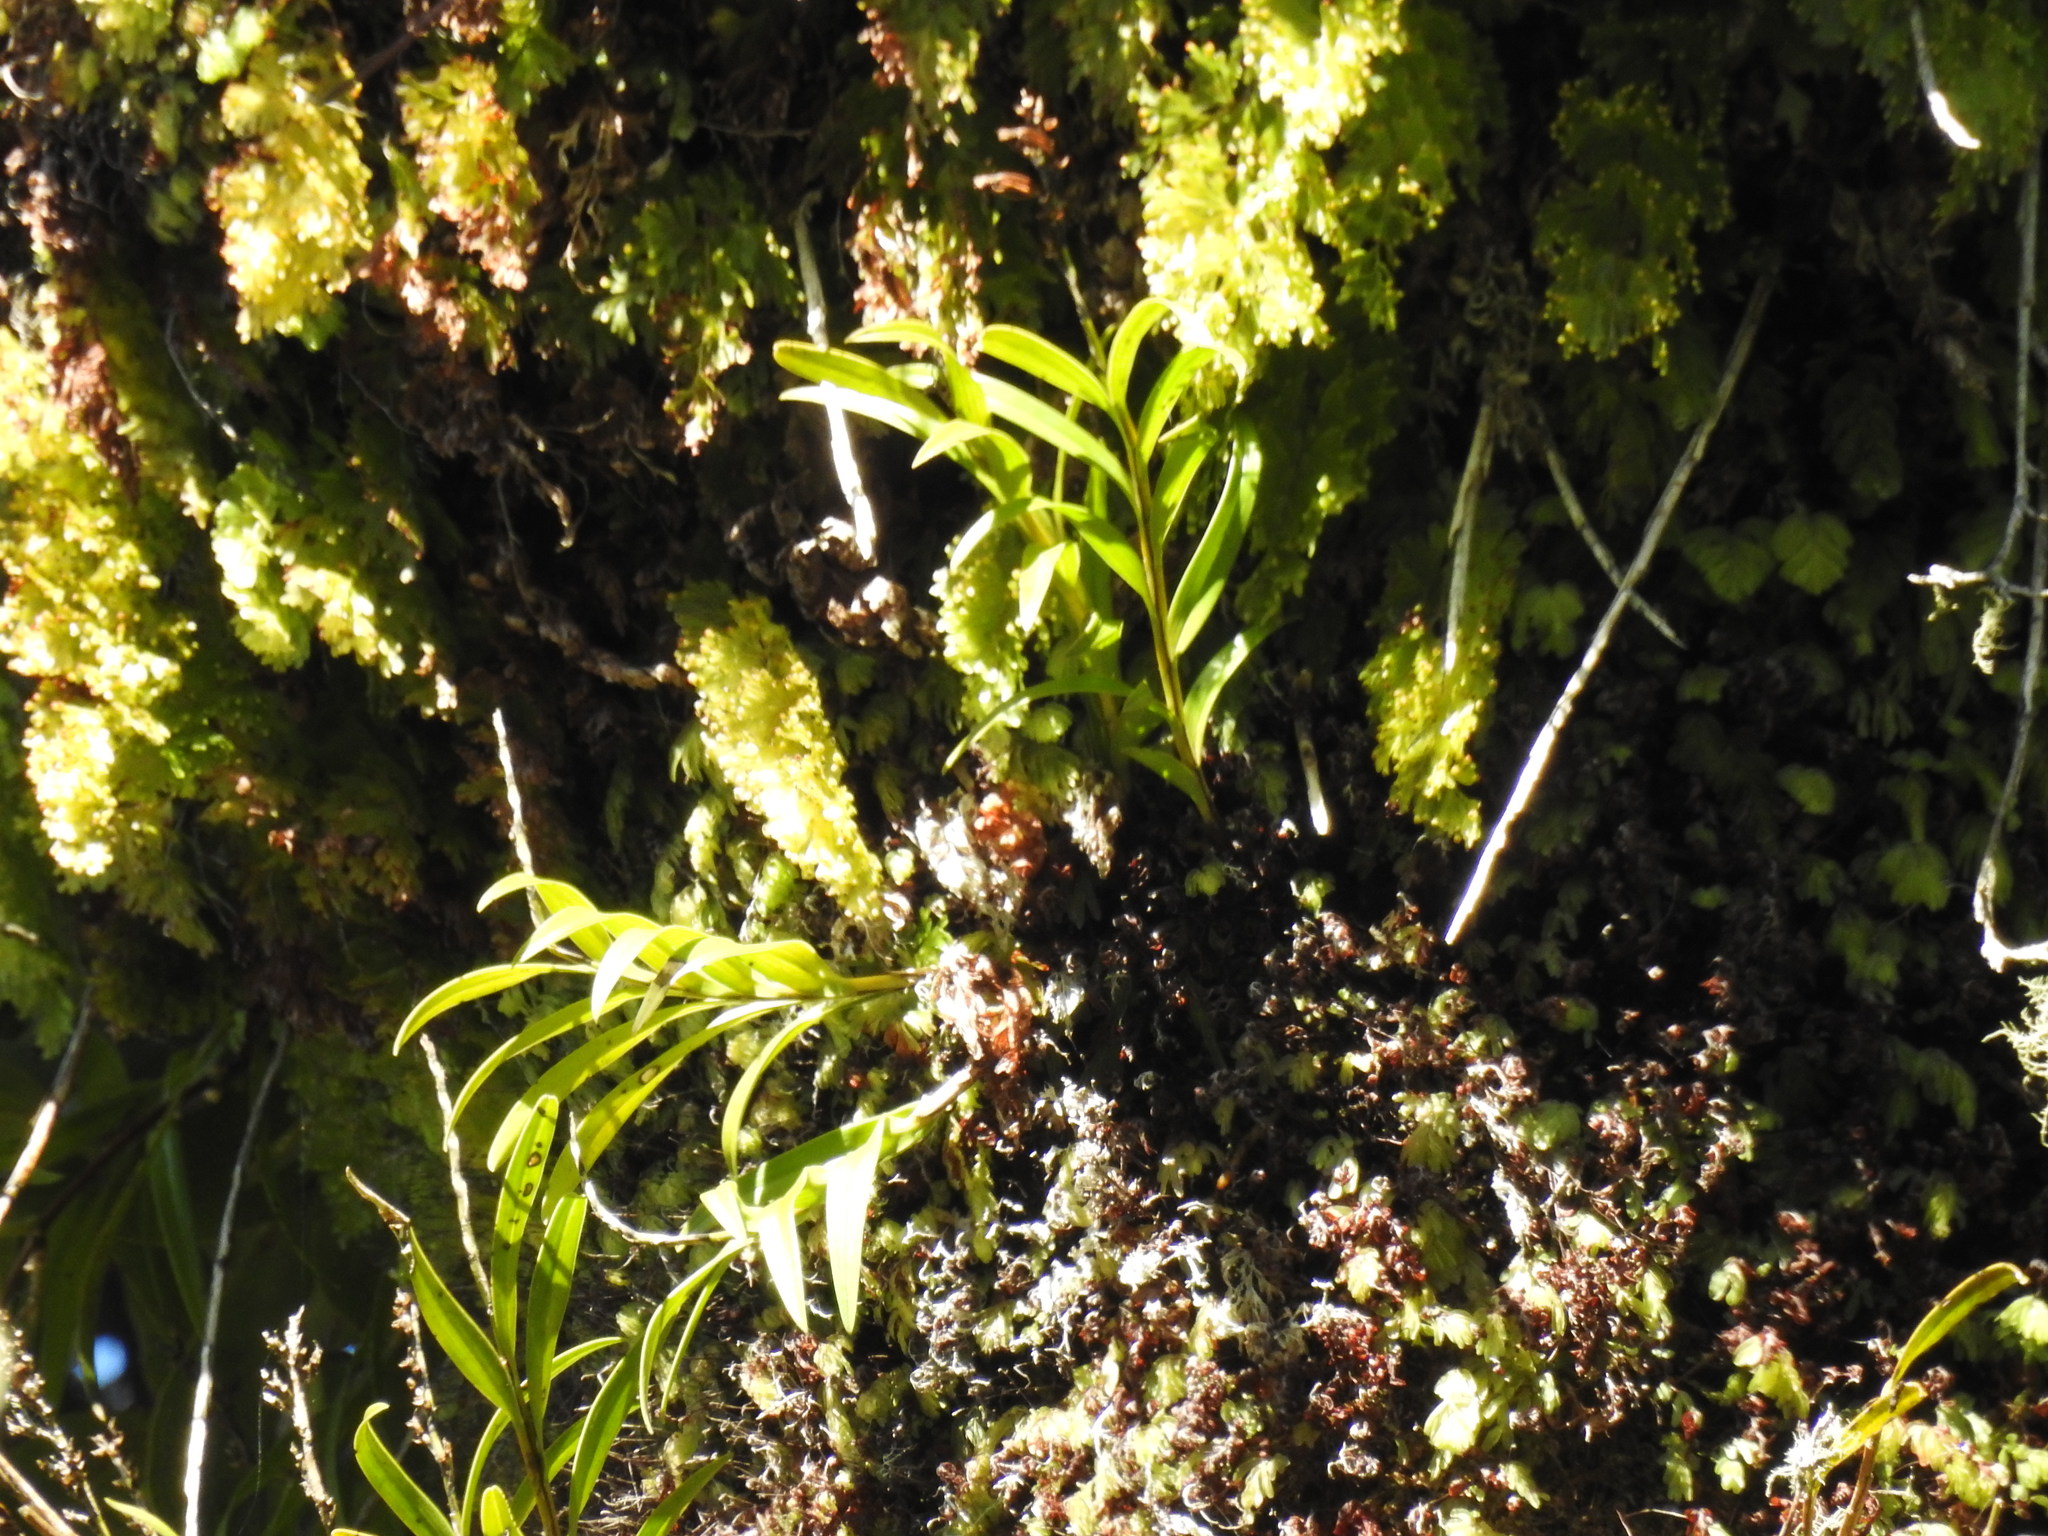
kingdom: Plantae
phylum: Tracheophyta
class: Liliopsida
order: Asparagales
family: Orchidaceae
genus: Earina
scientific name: Earina autumnalis
